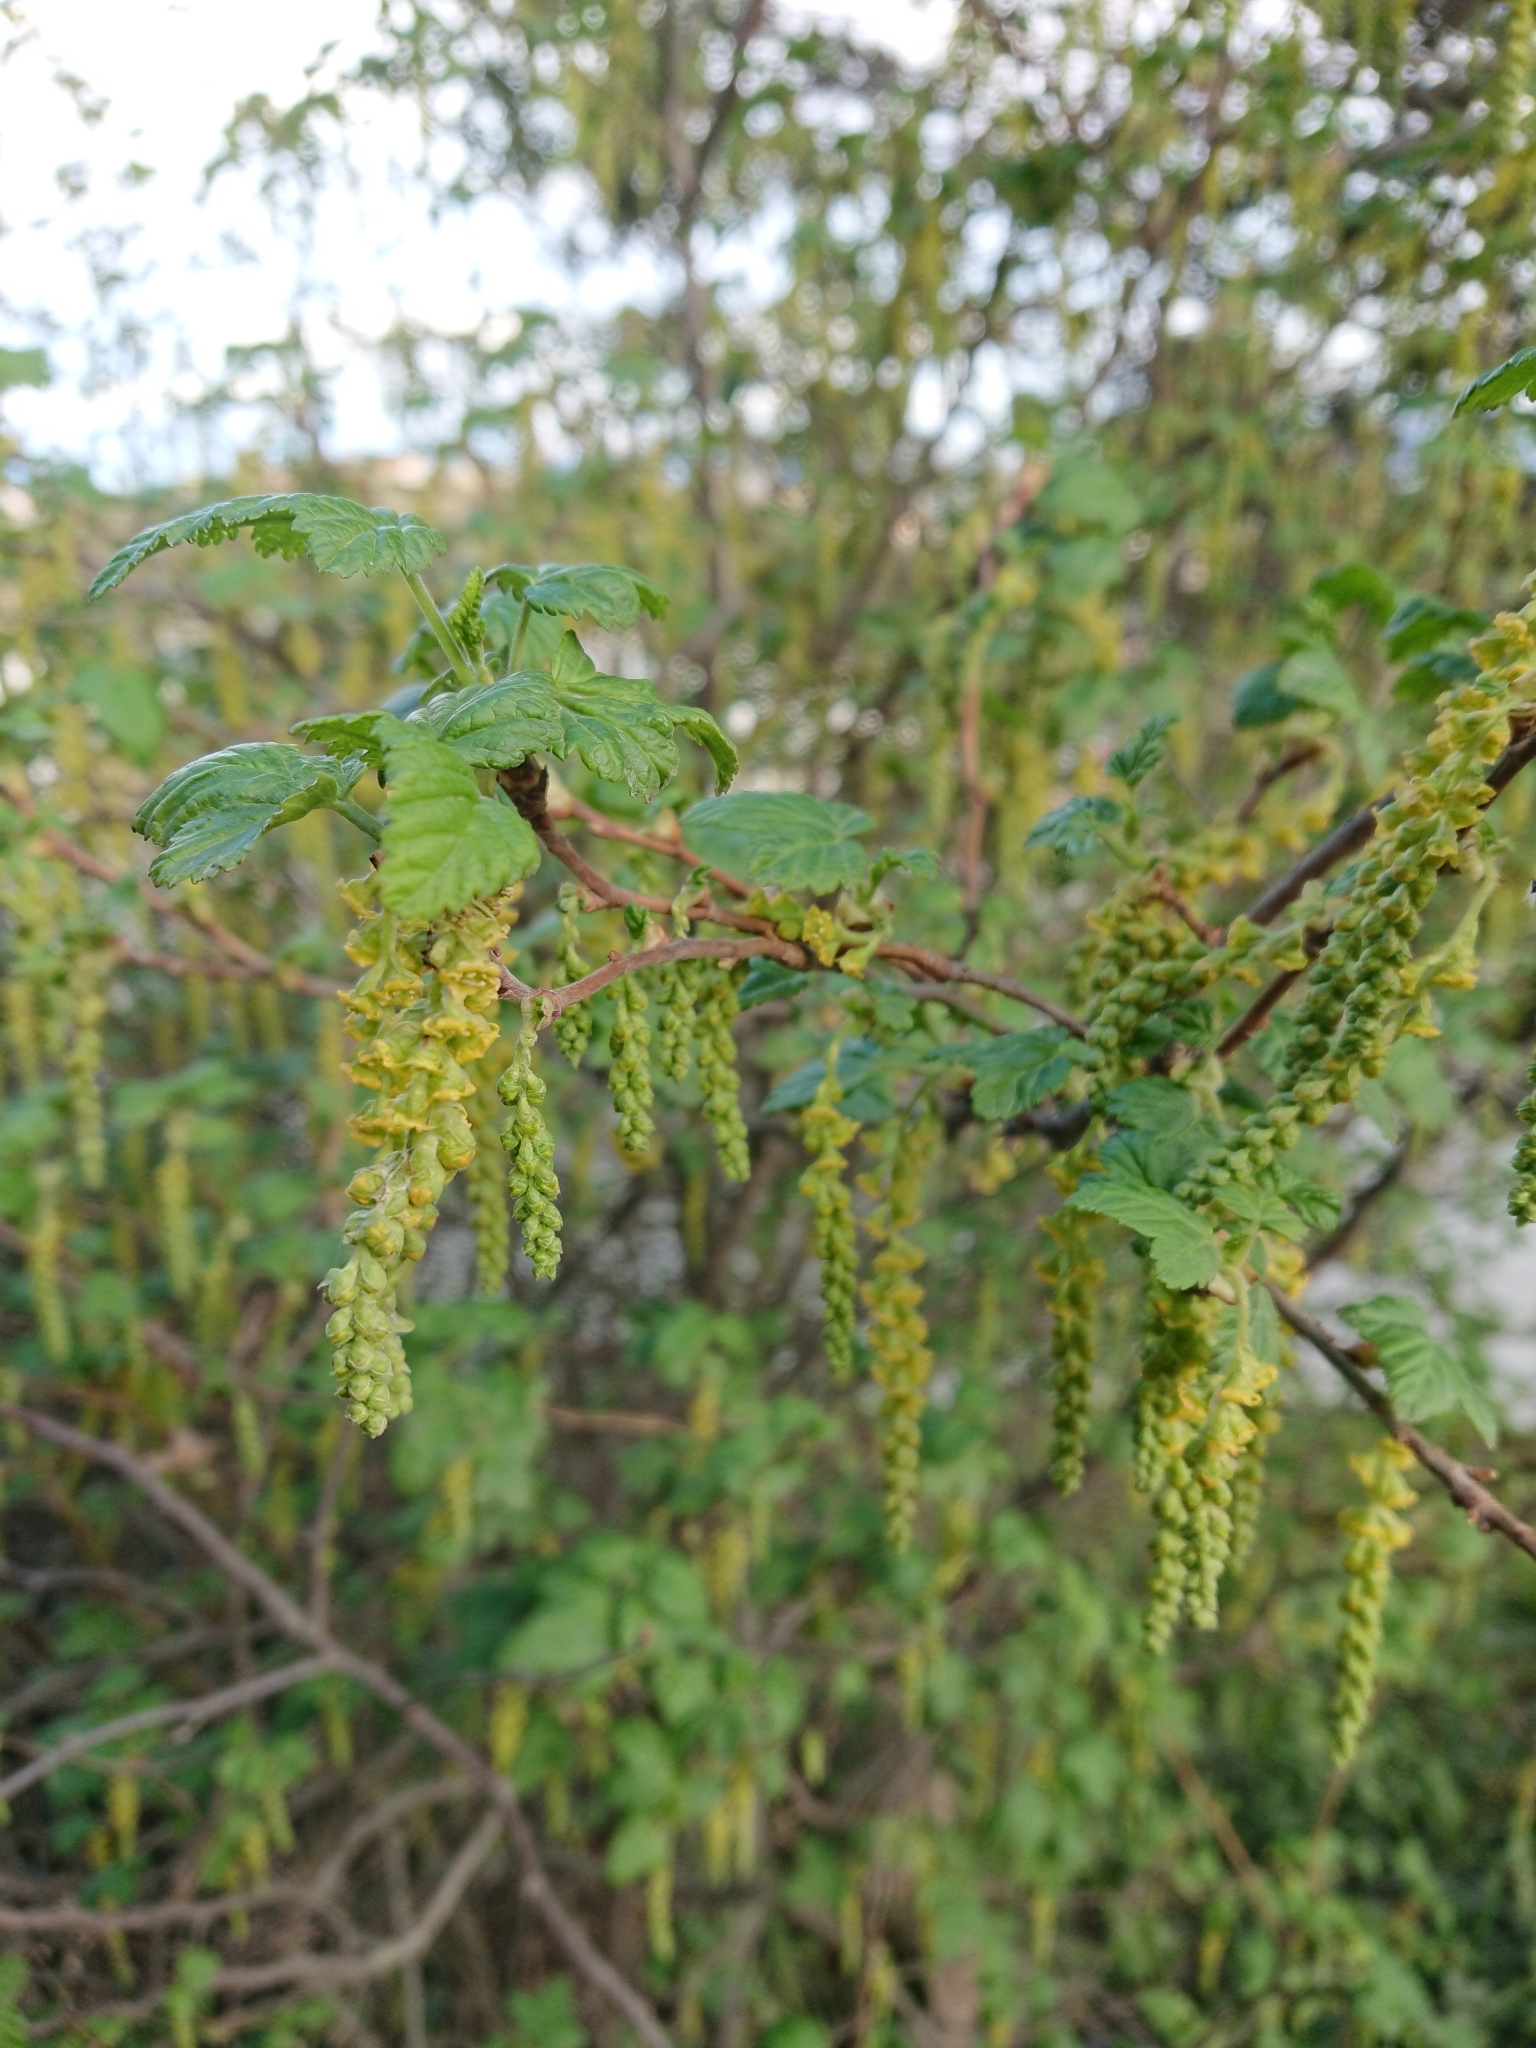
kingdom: Plantae
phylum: Tracheophyta
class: Magnoliopsida
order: Saxifragales
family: Grossulariaceae
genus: Ribes
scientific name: Ribes magellanicum
